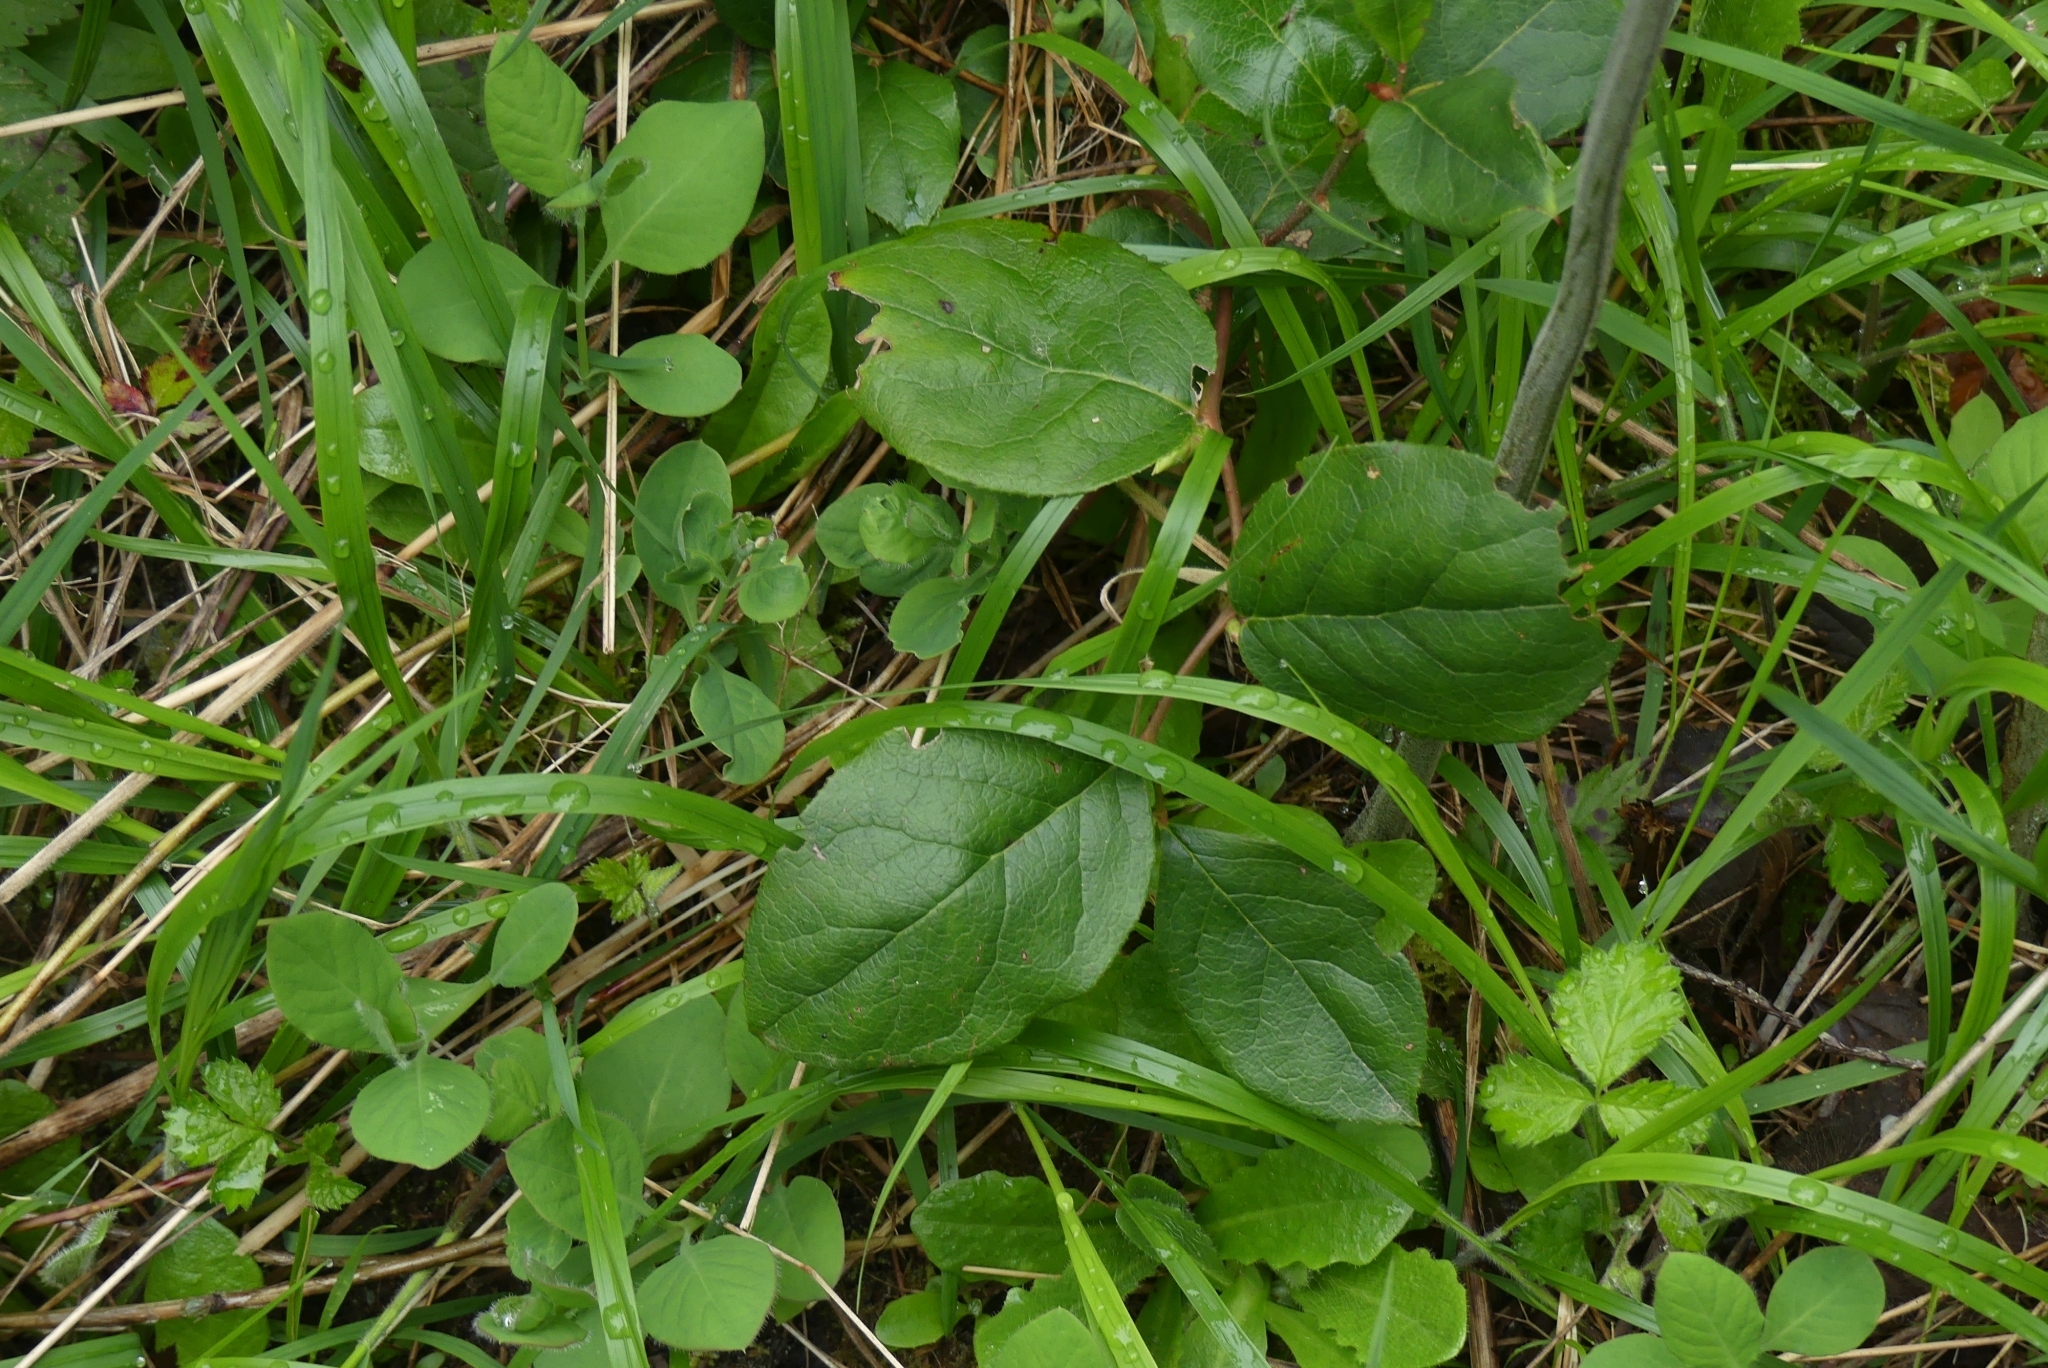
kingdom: Plantae
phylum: Tracheophyta
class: Magnoliopsida
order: Ericales
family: Ericaceae
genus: Gaultheria
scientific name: Gaultheria shallon
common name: Shallon
